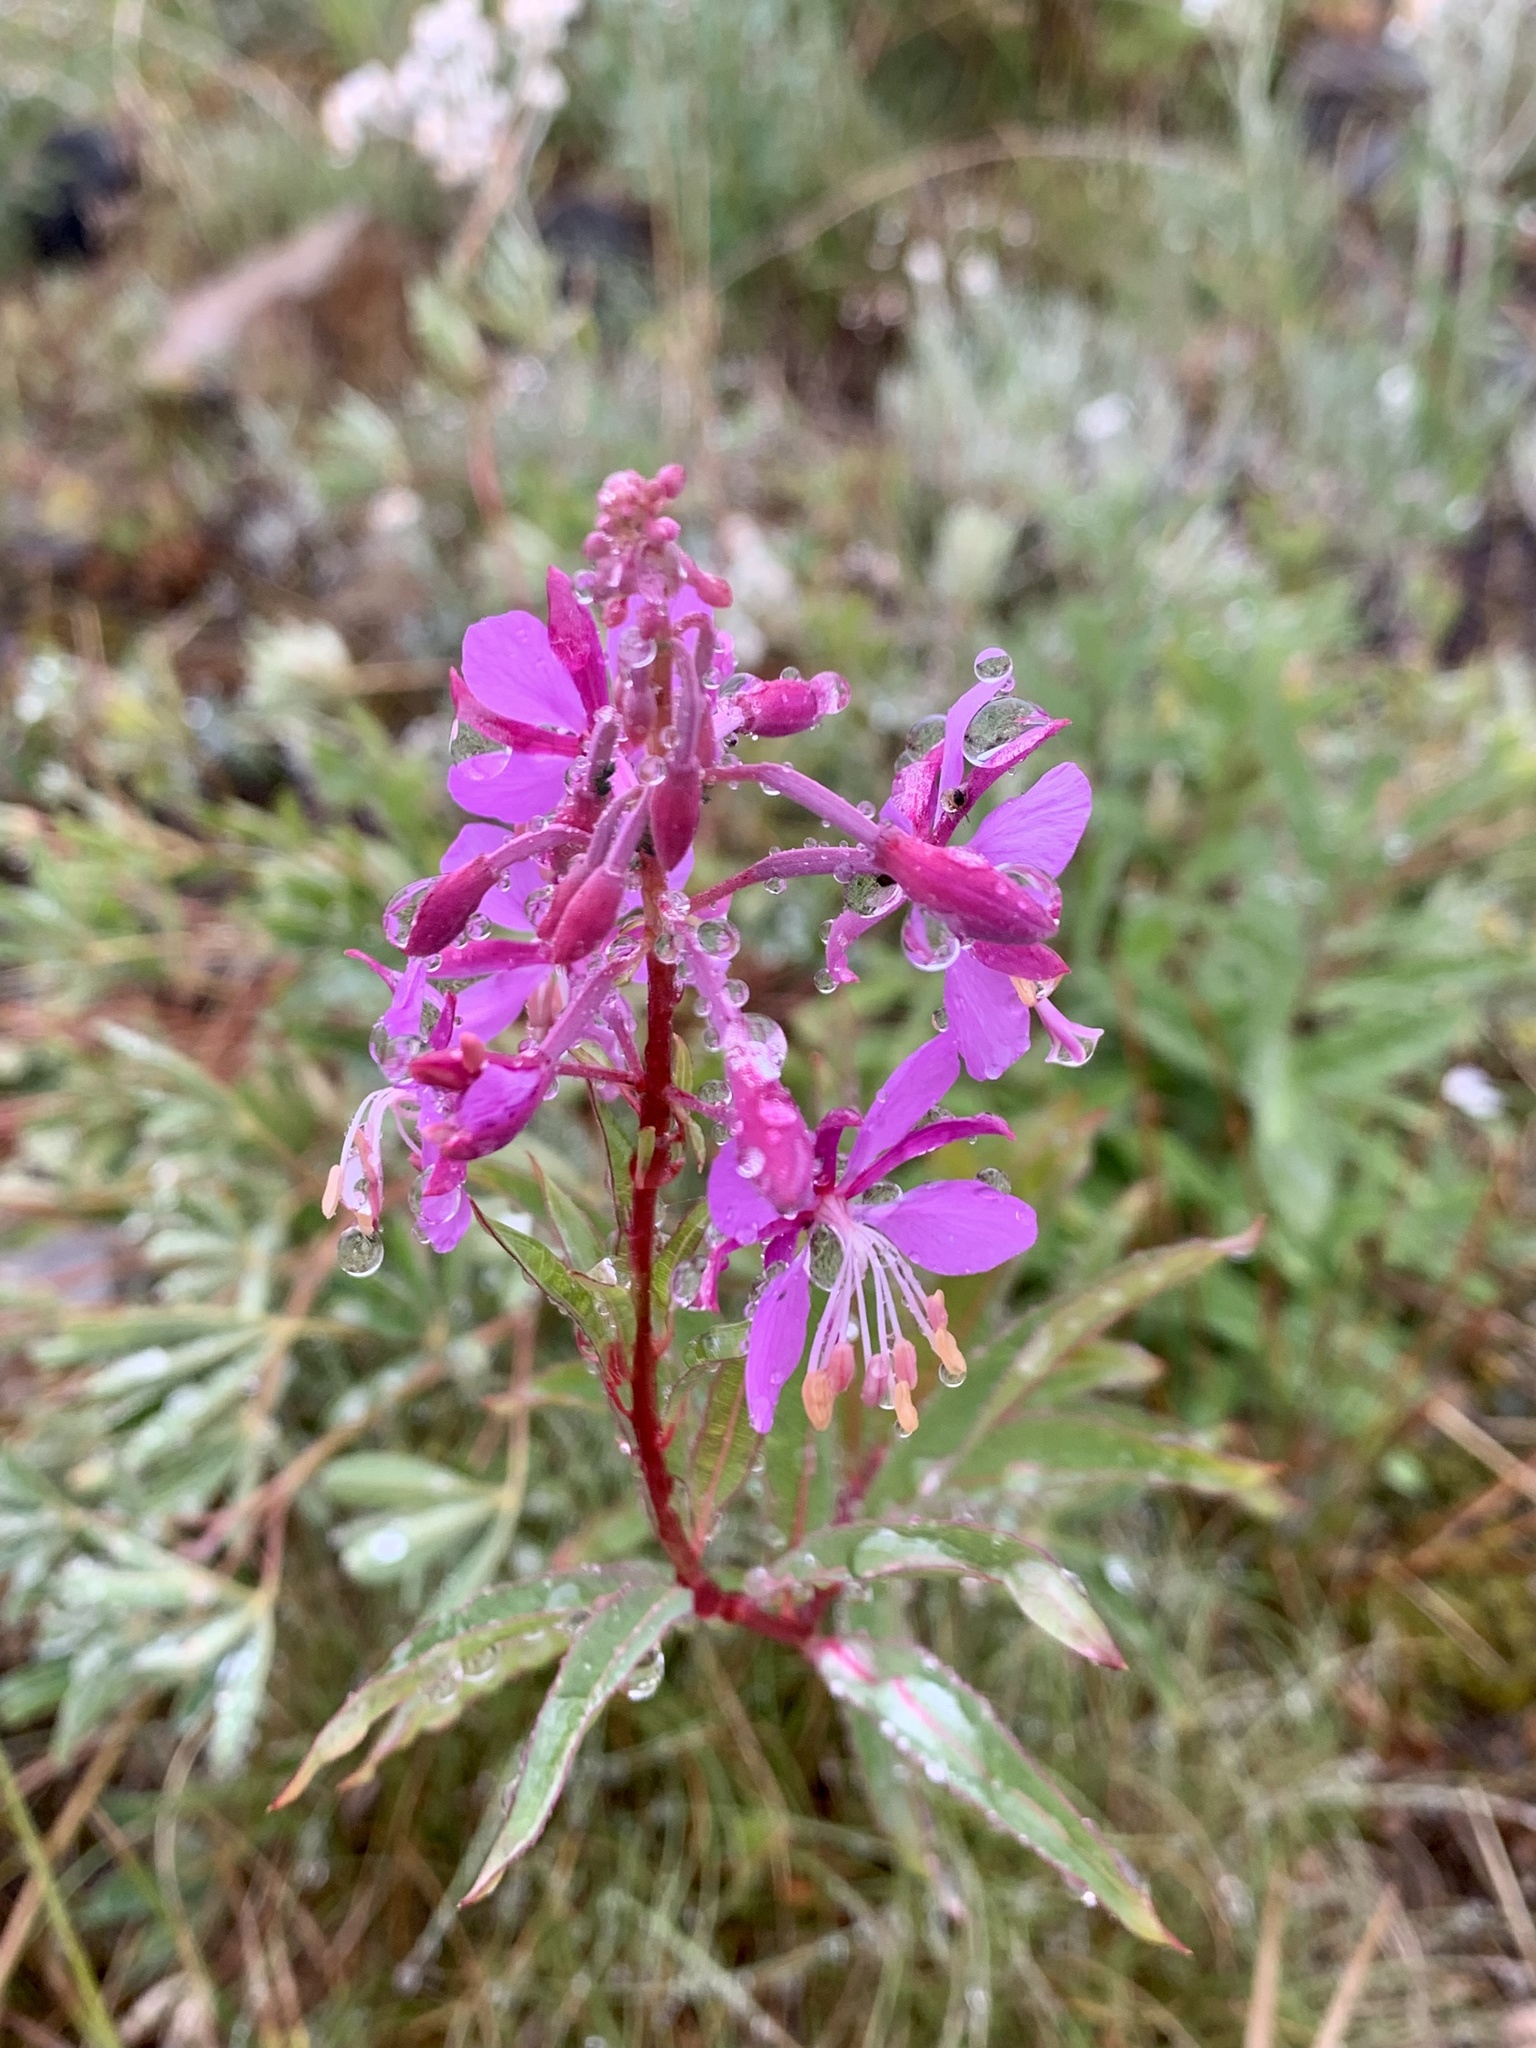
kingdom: Plantae
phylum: Tracheophyta
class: Magnoliopsida
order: Myrtales
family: Onagraceae
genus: Chamaenerion
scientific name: Chamaenerion angustifolium
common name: Fireweed
